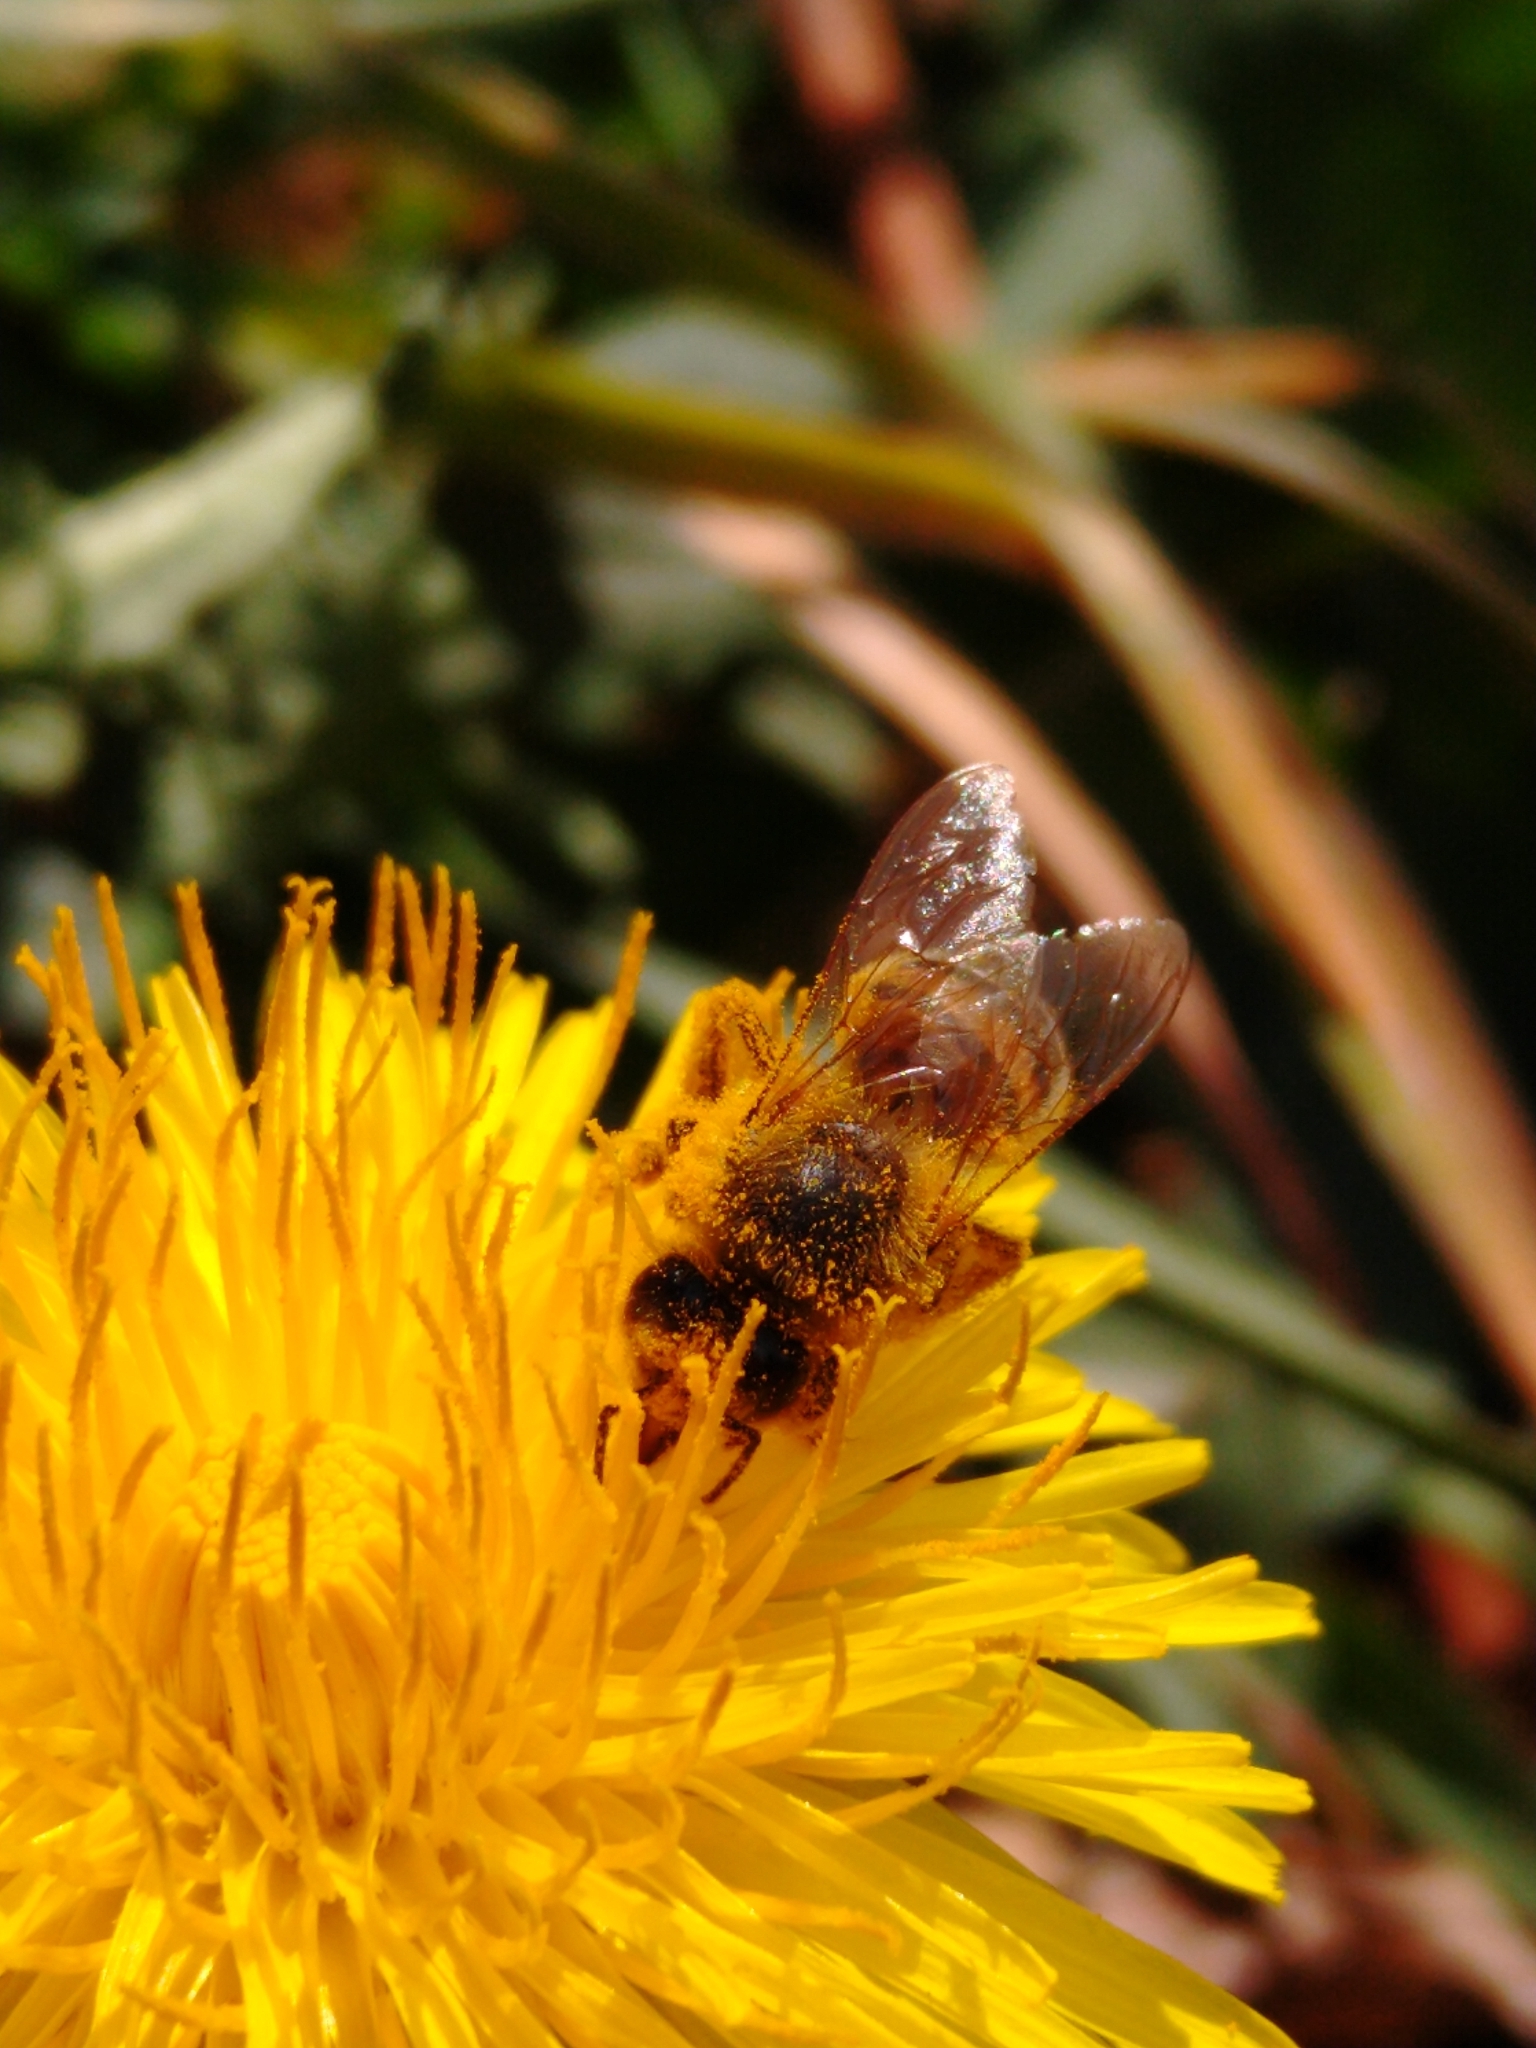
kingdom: Animalia
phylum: Arthropoda
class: Insecta
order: Hymenoptera
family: Apidae
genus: Apis
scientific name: Apis mellifera
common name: Honey bee
